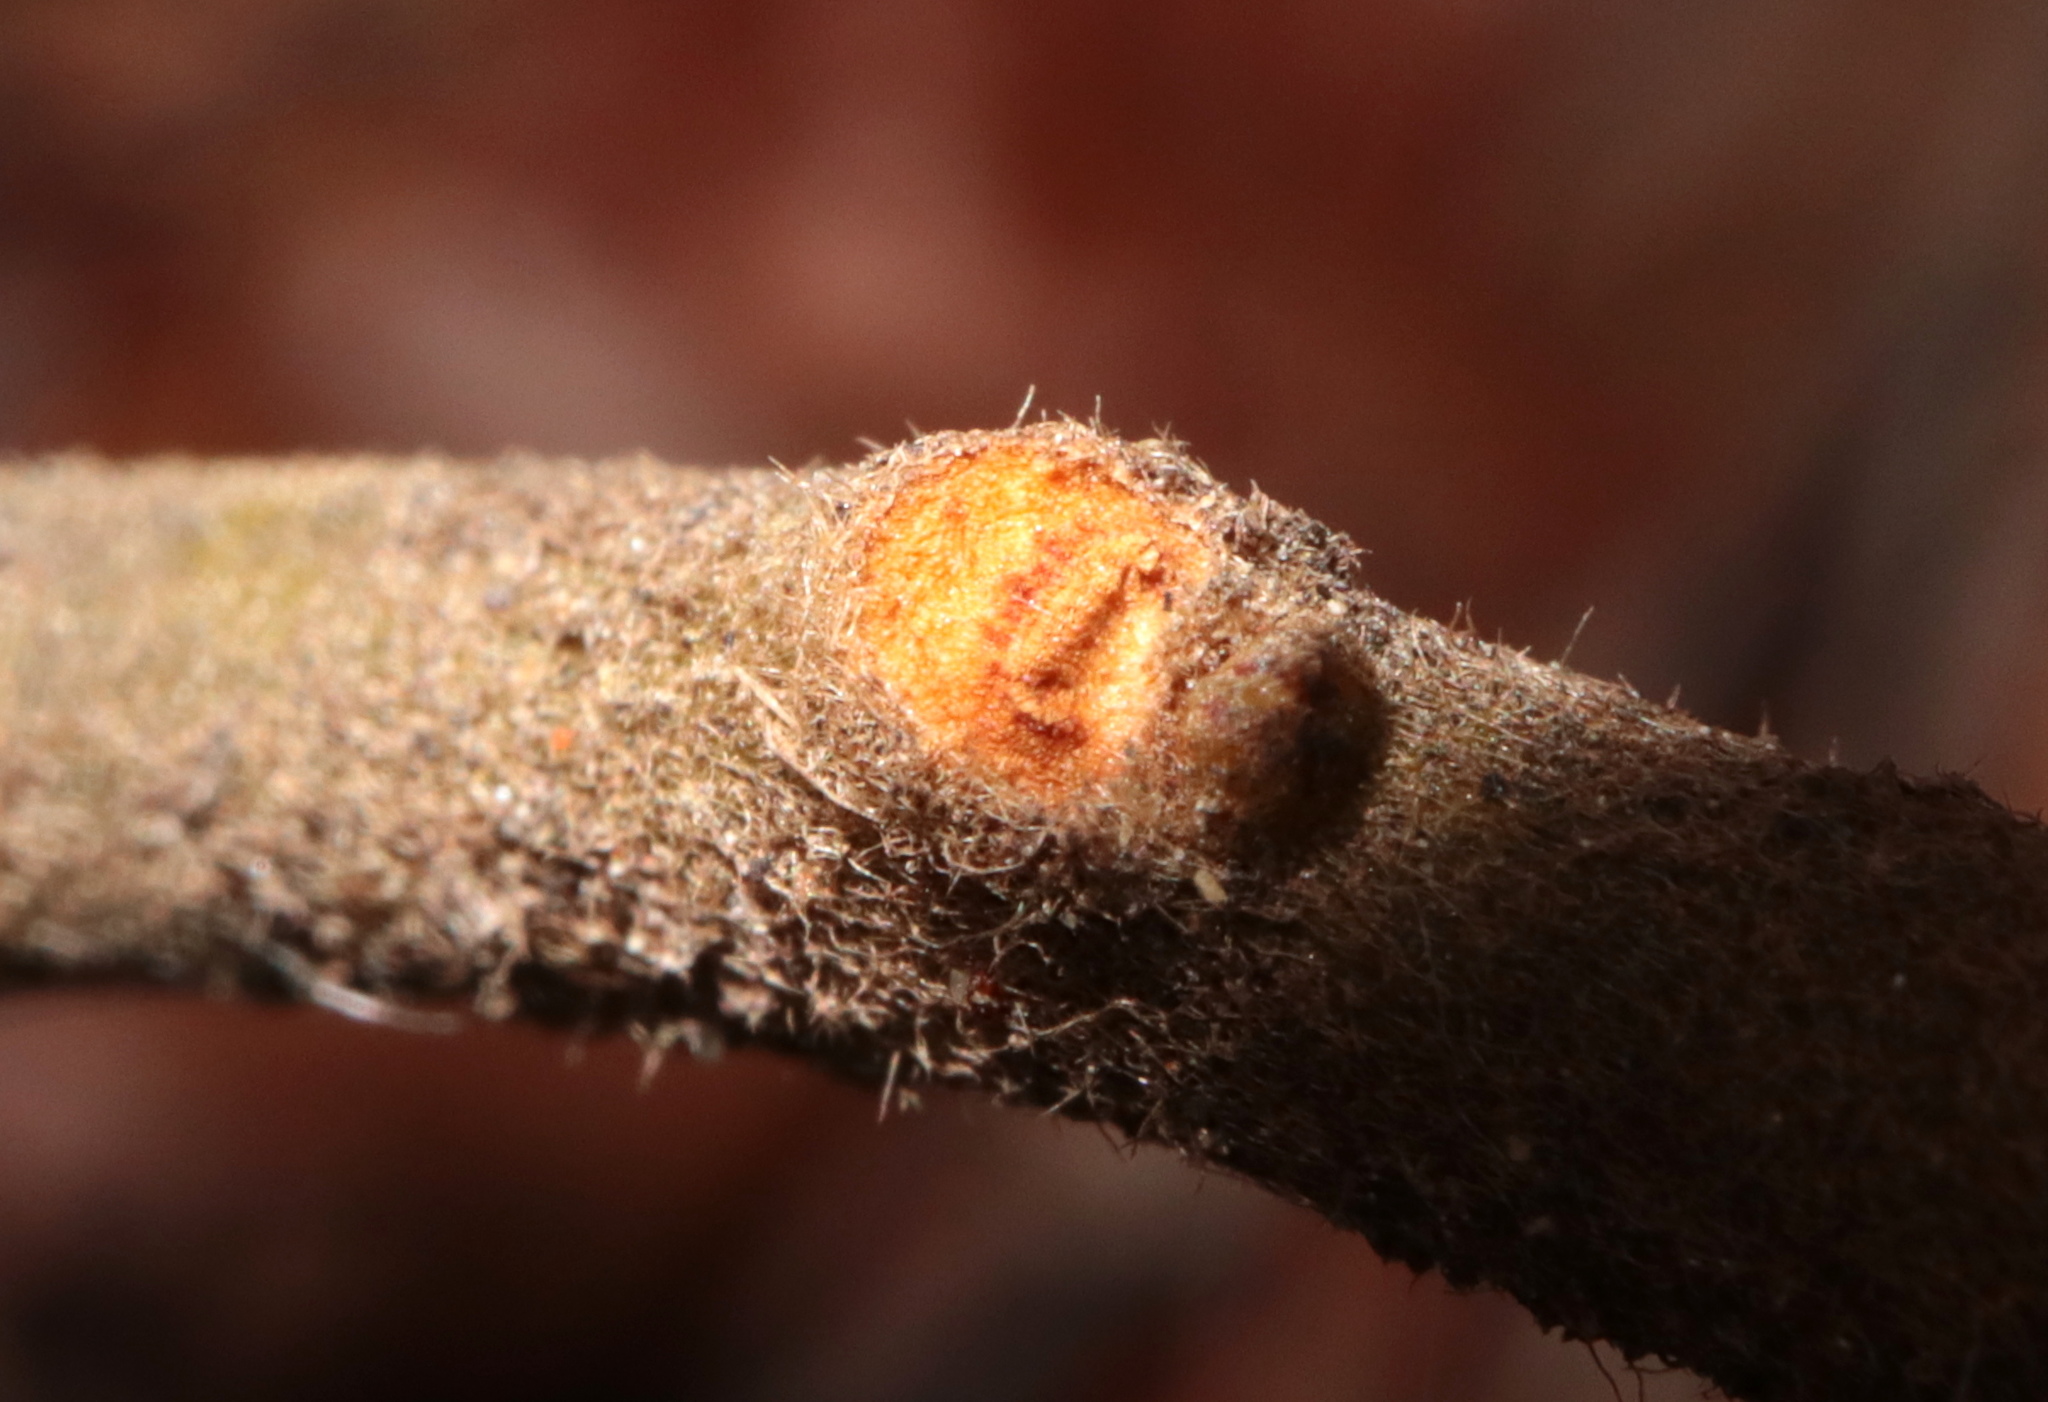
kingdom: Plantae
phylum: Tracheophyta
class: Magnoliopsida
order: Laurales
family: Lauraceae
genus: Sassafras
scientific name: Sassafras albidum
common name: Sassafras
